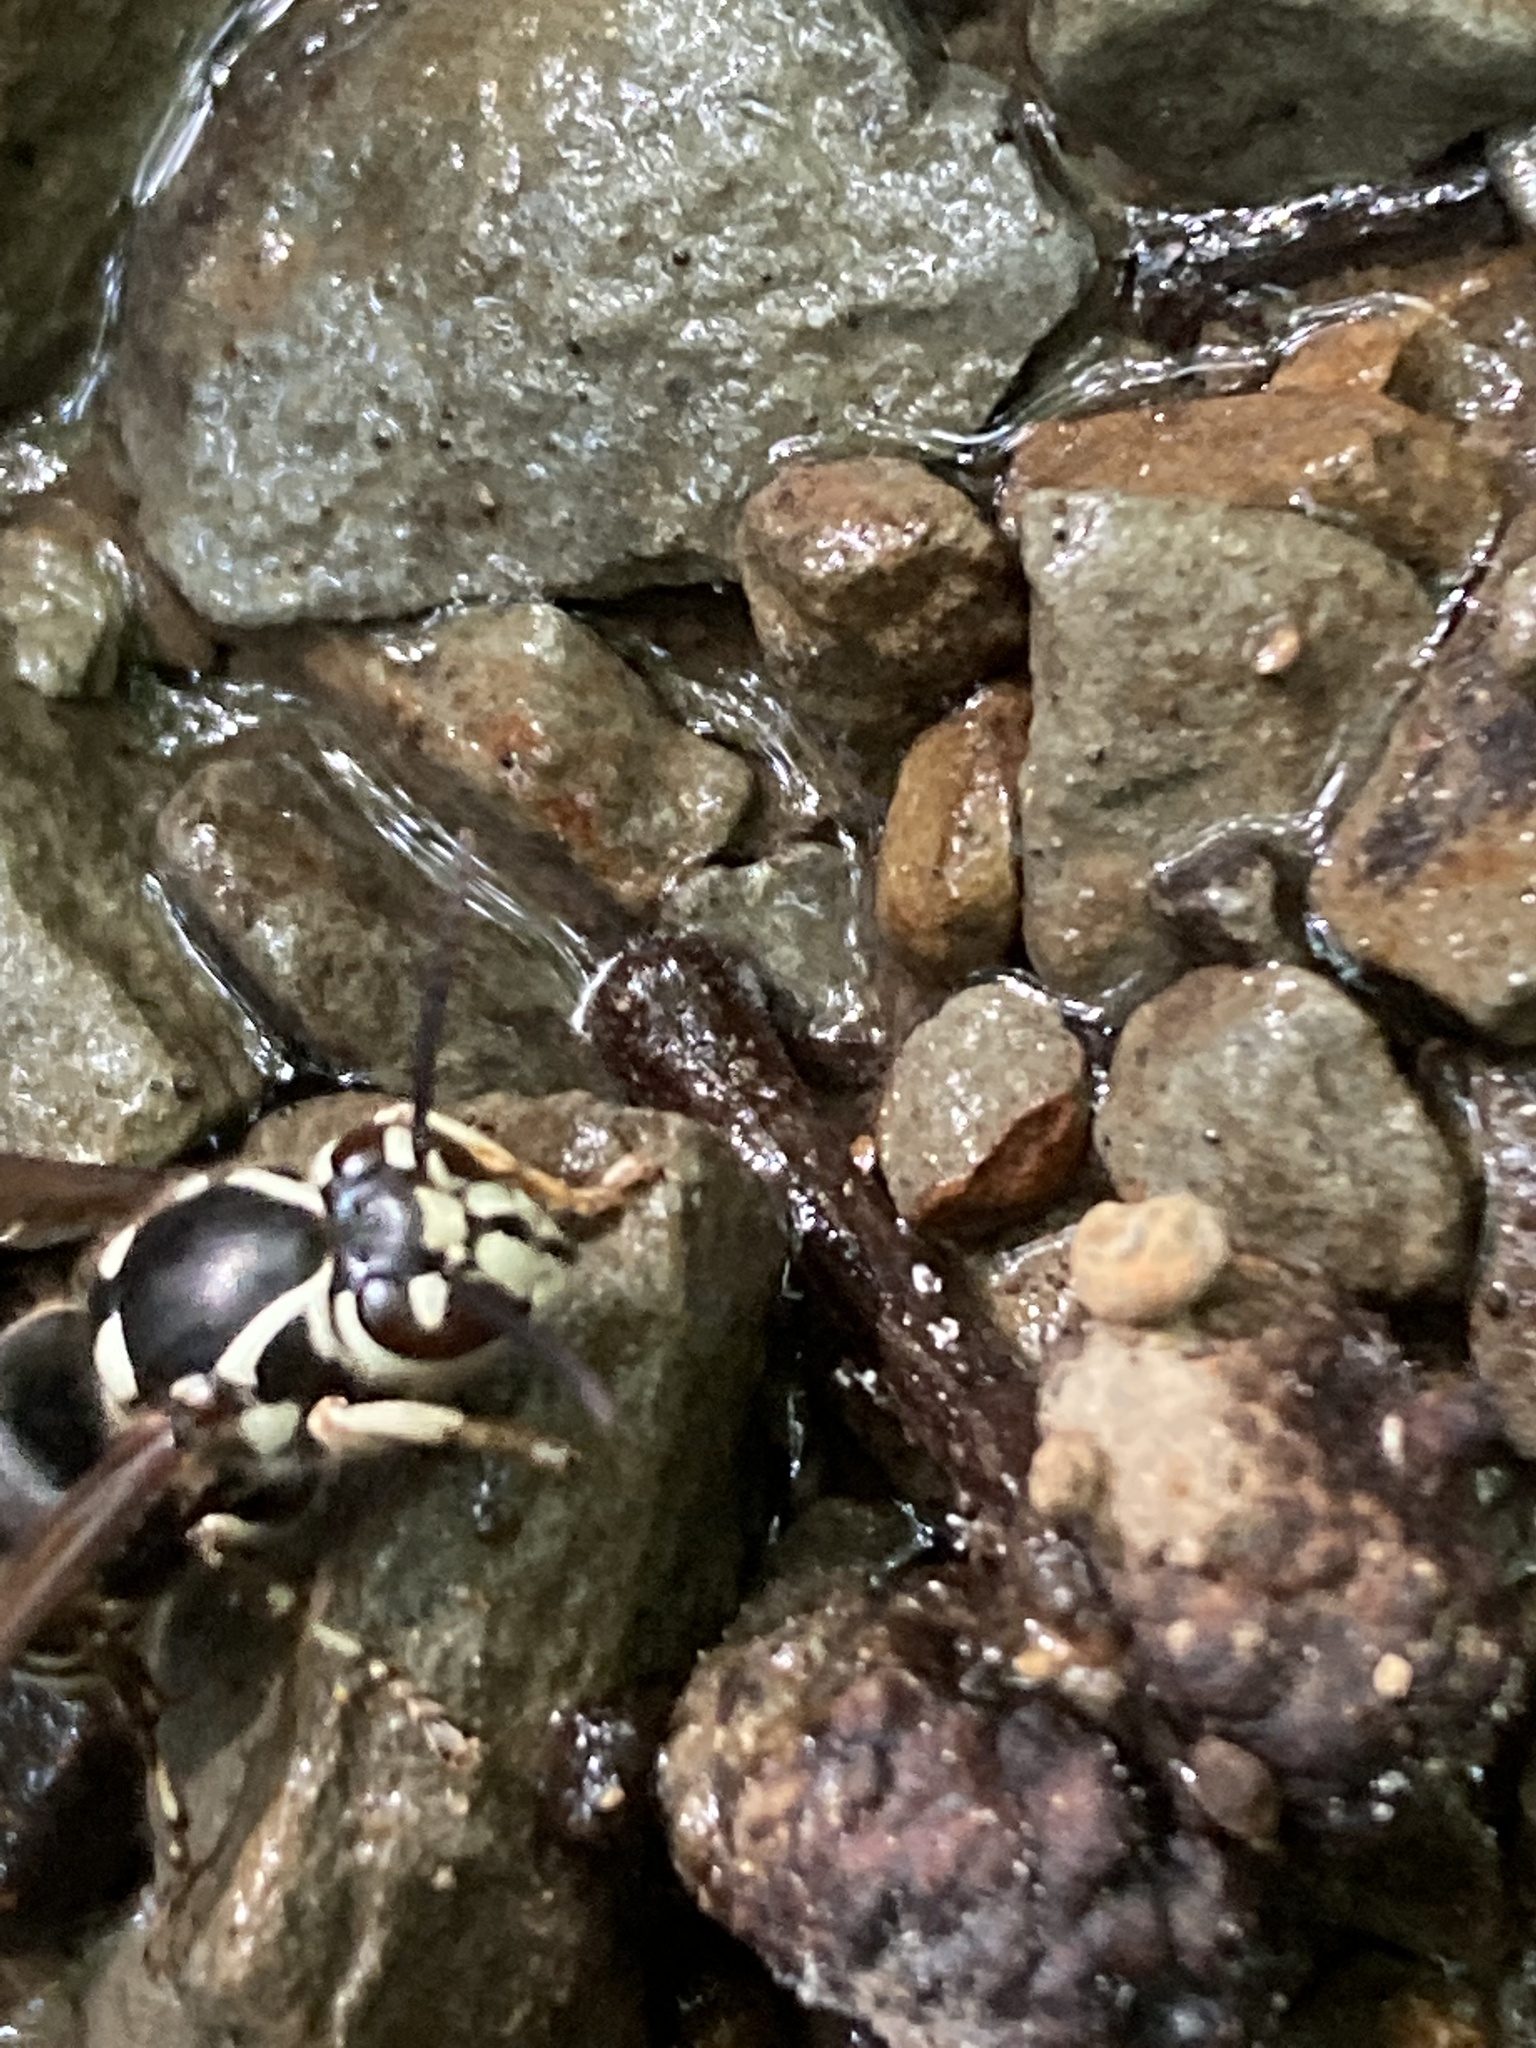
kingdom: Animalia
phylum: Arthropoda
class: Insecta
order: Hymenoptera
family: Vespidae
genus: Dolichovespula
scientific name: Dolichovespula maculata
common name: Bald-faced hornet
